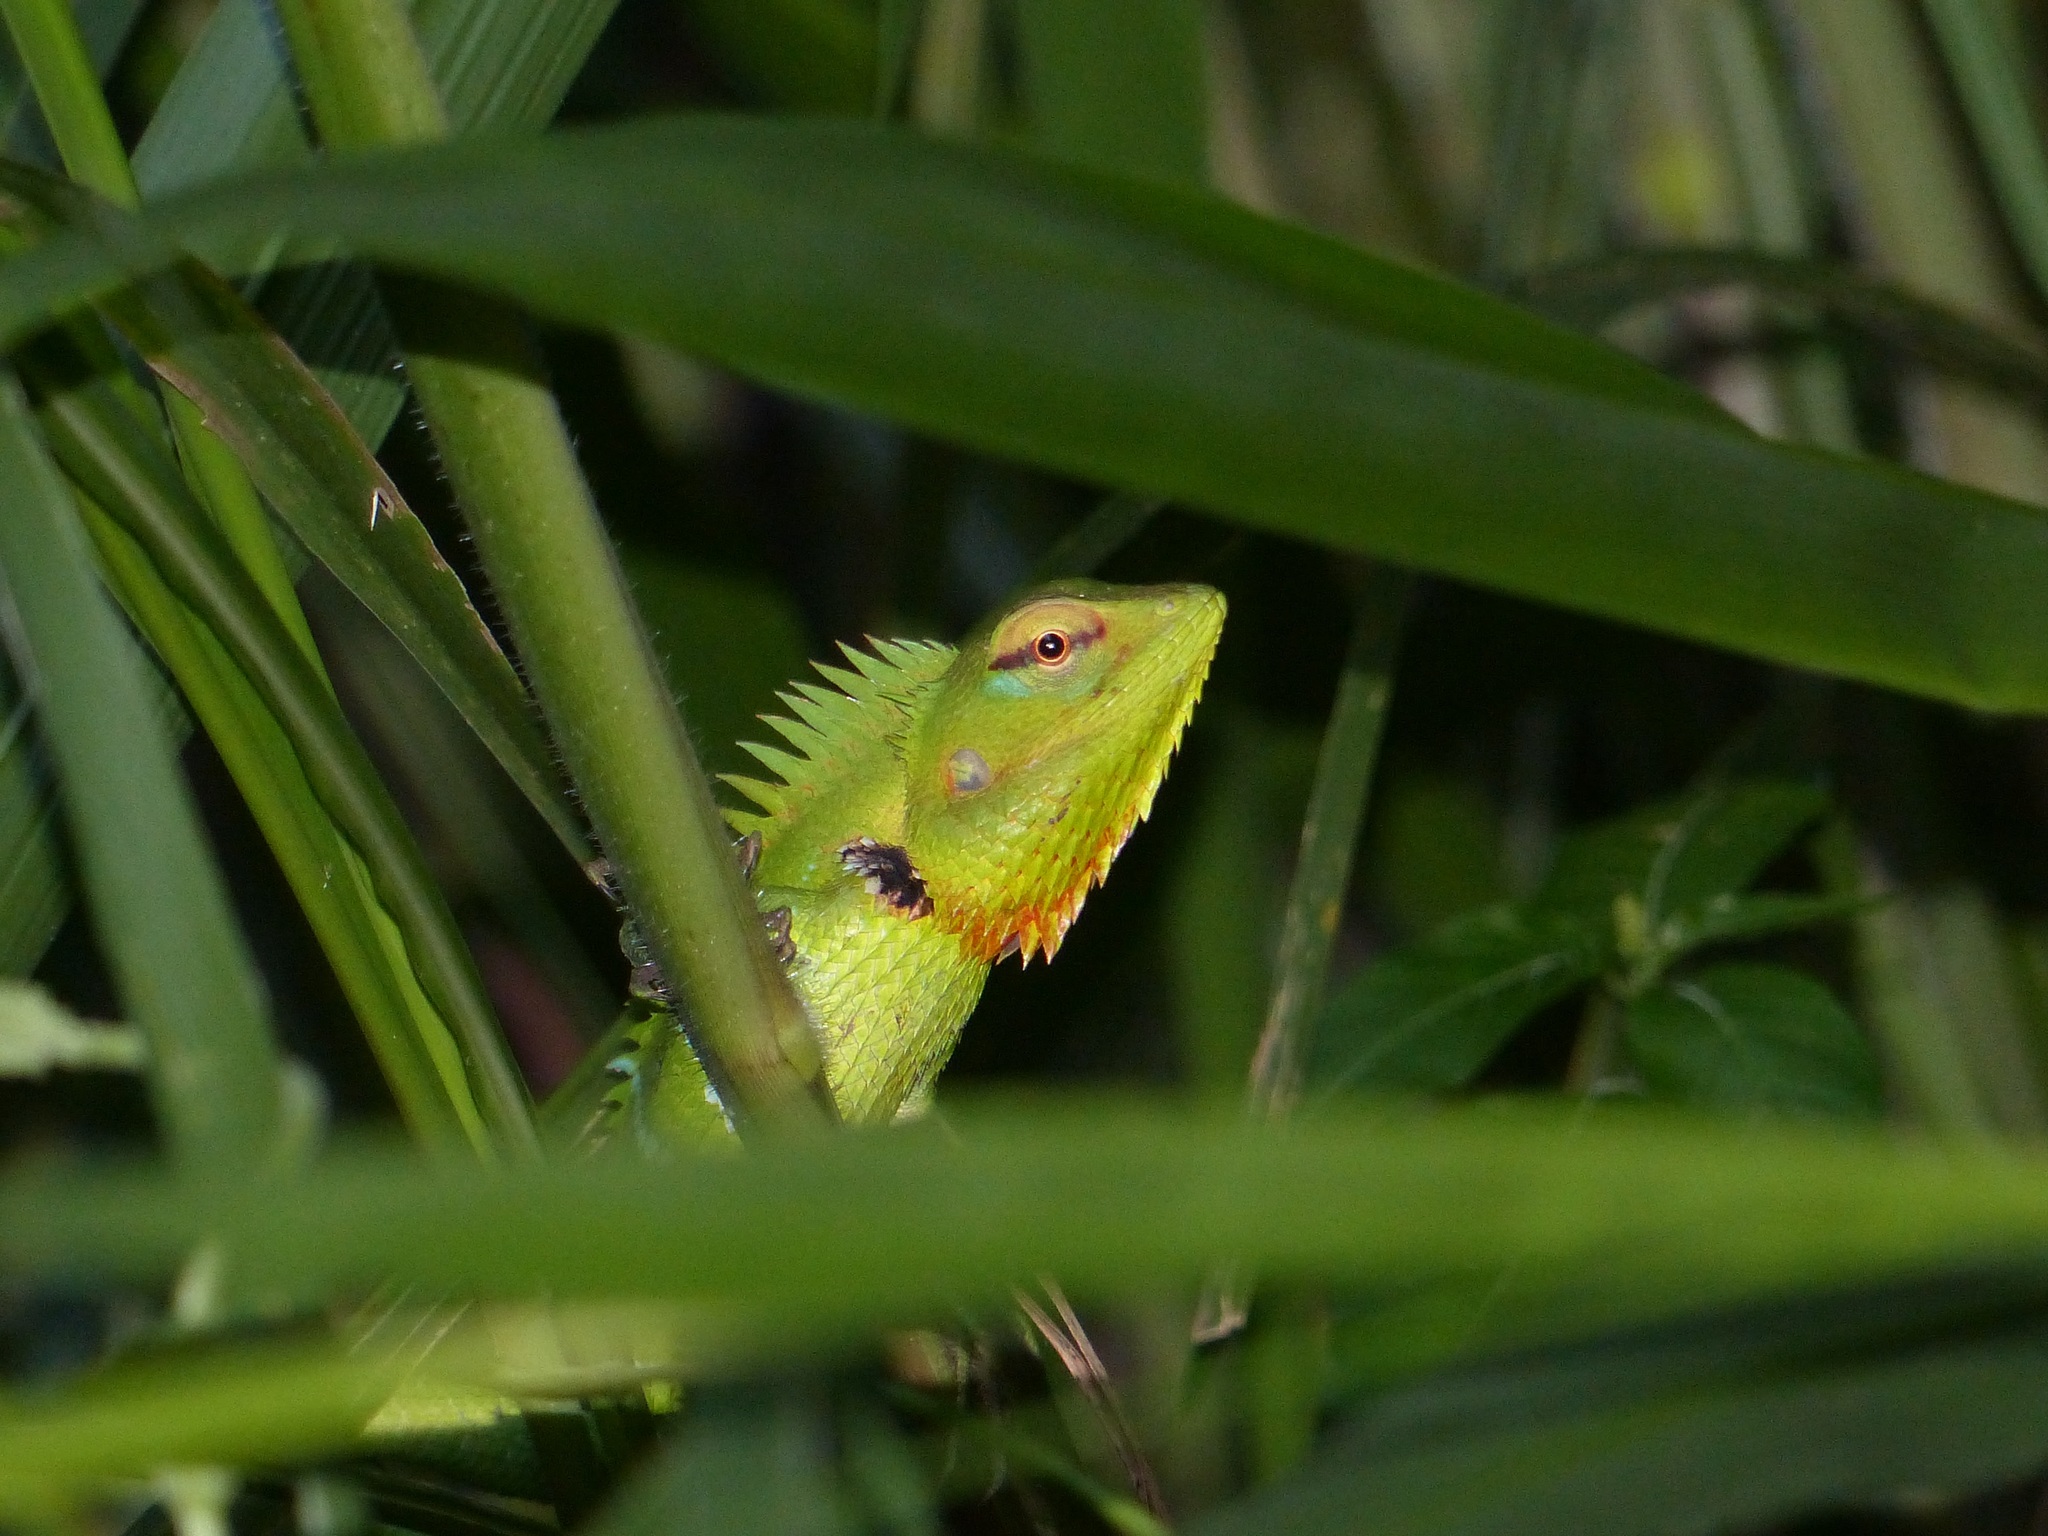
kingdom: Animalia
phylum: Chordata
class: Squamata
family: Agamidae
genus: Calotes
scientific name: Calotes calotes
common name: Common green forest lizard
